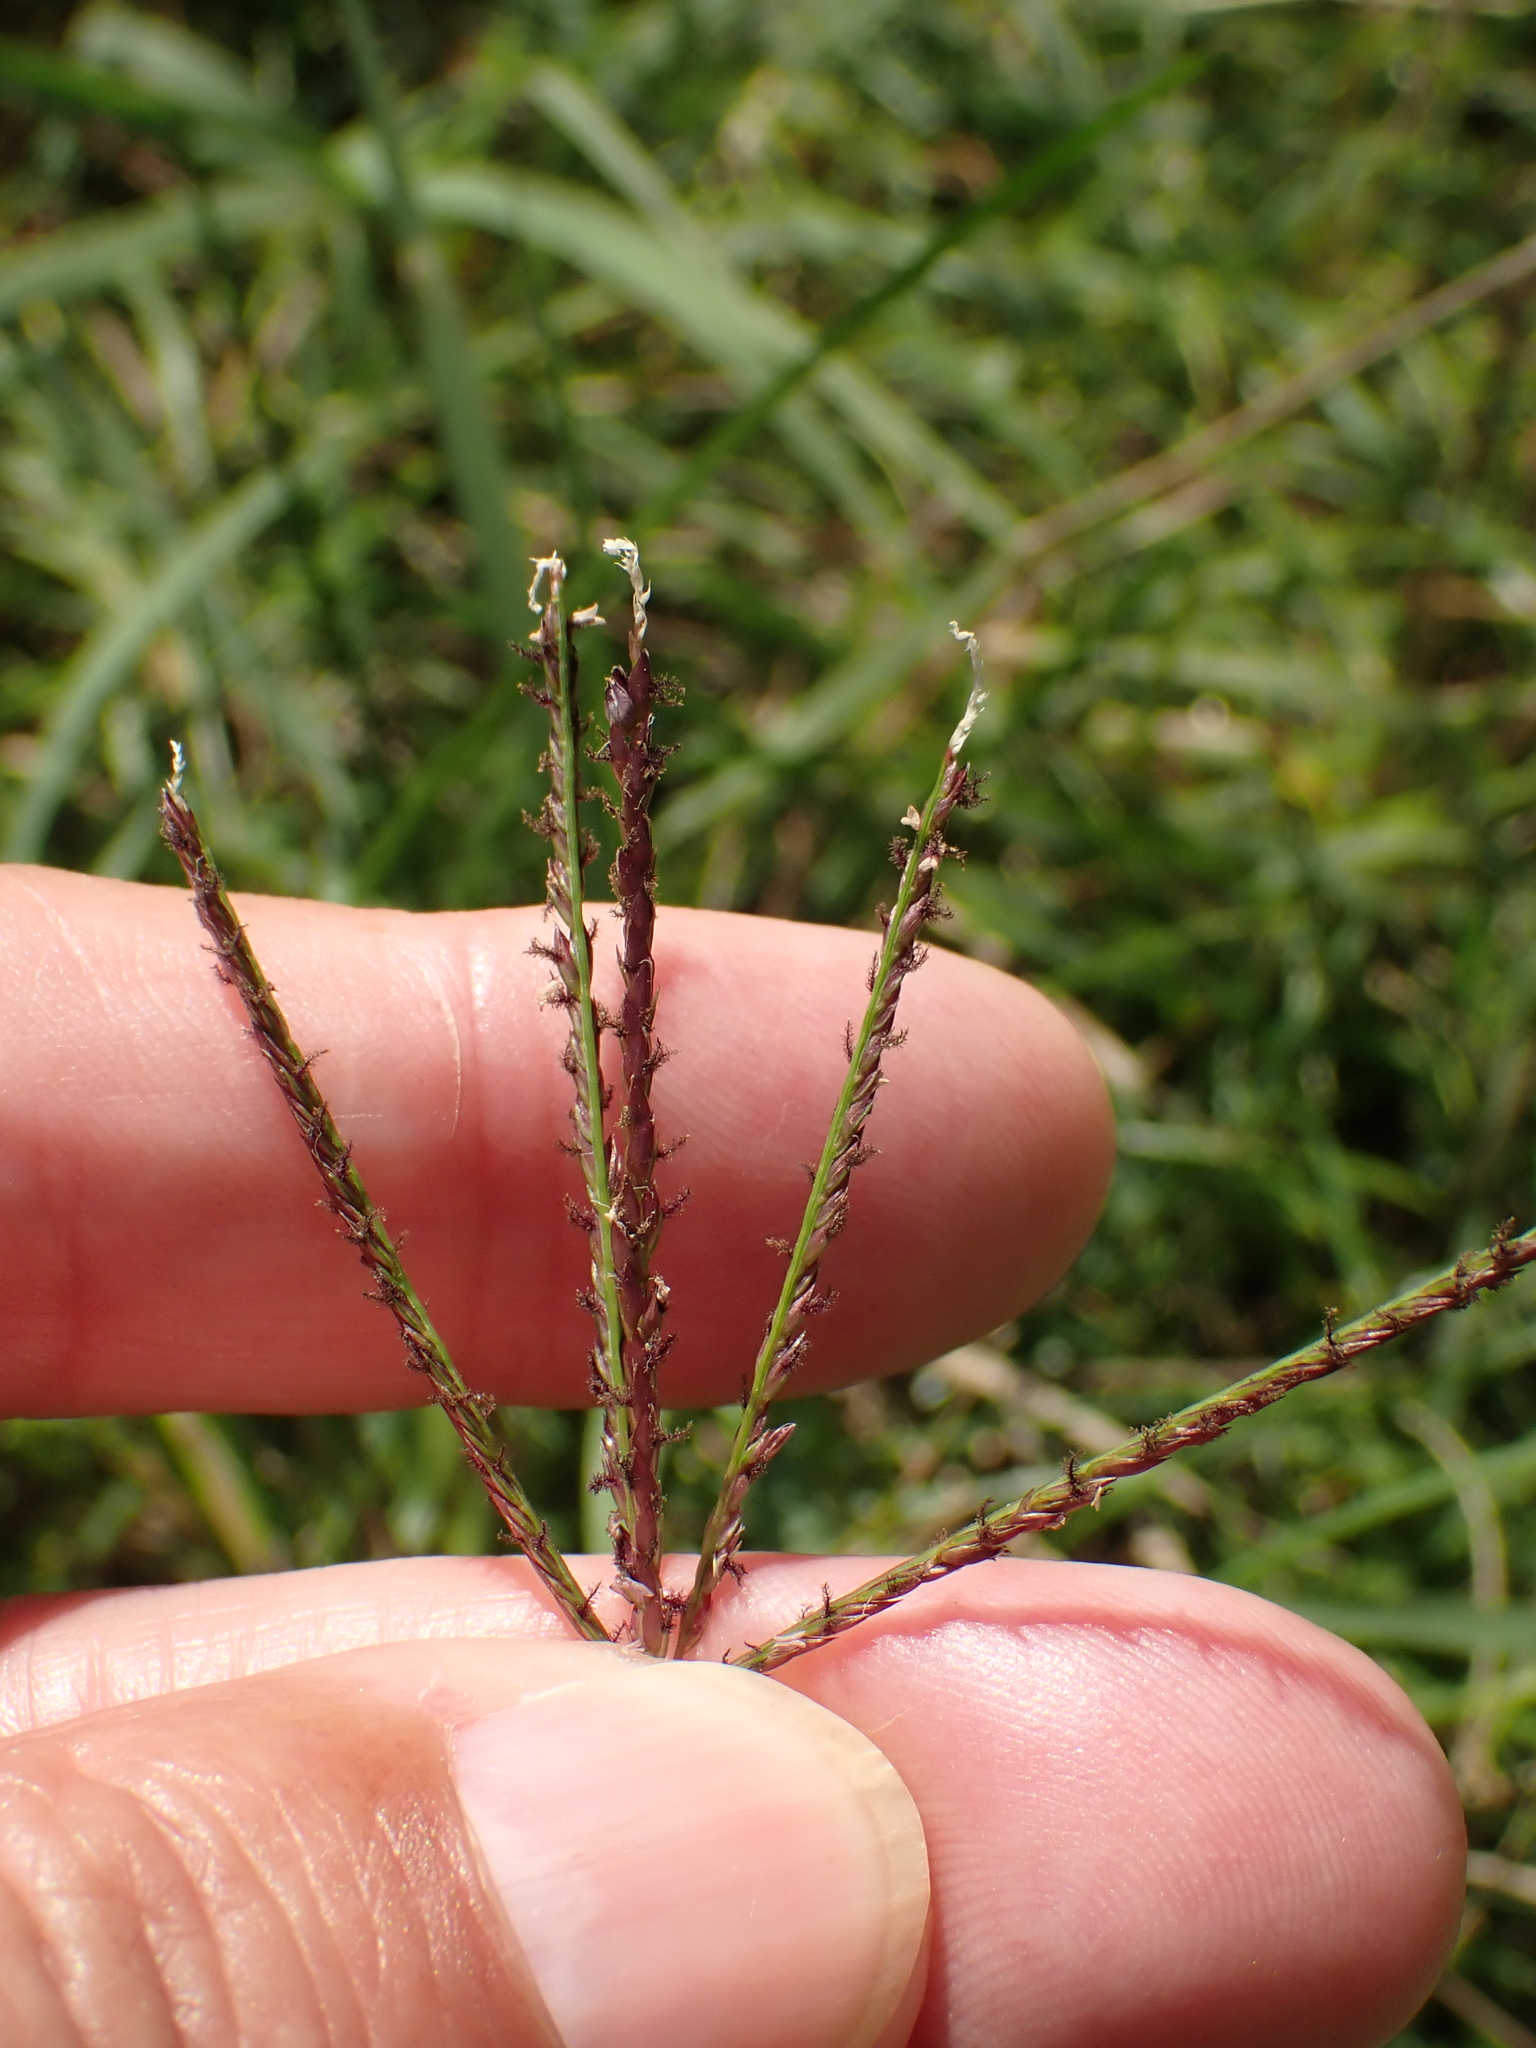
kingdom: Plantae
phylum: Tracheophyta
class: Liliopsida
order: Poales
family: Poaceae
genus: Cynodon
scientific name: Cynodon dactylon
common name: Bermuda grass
